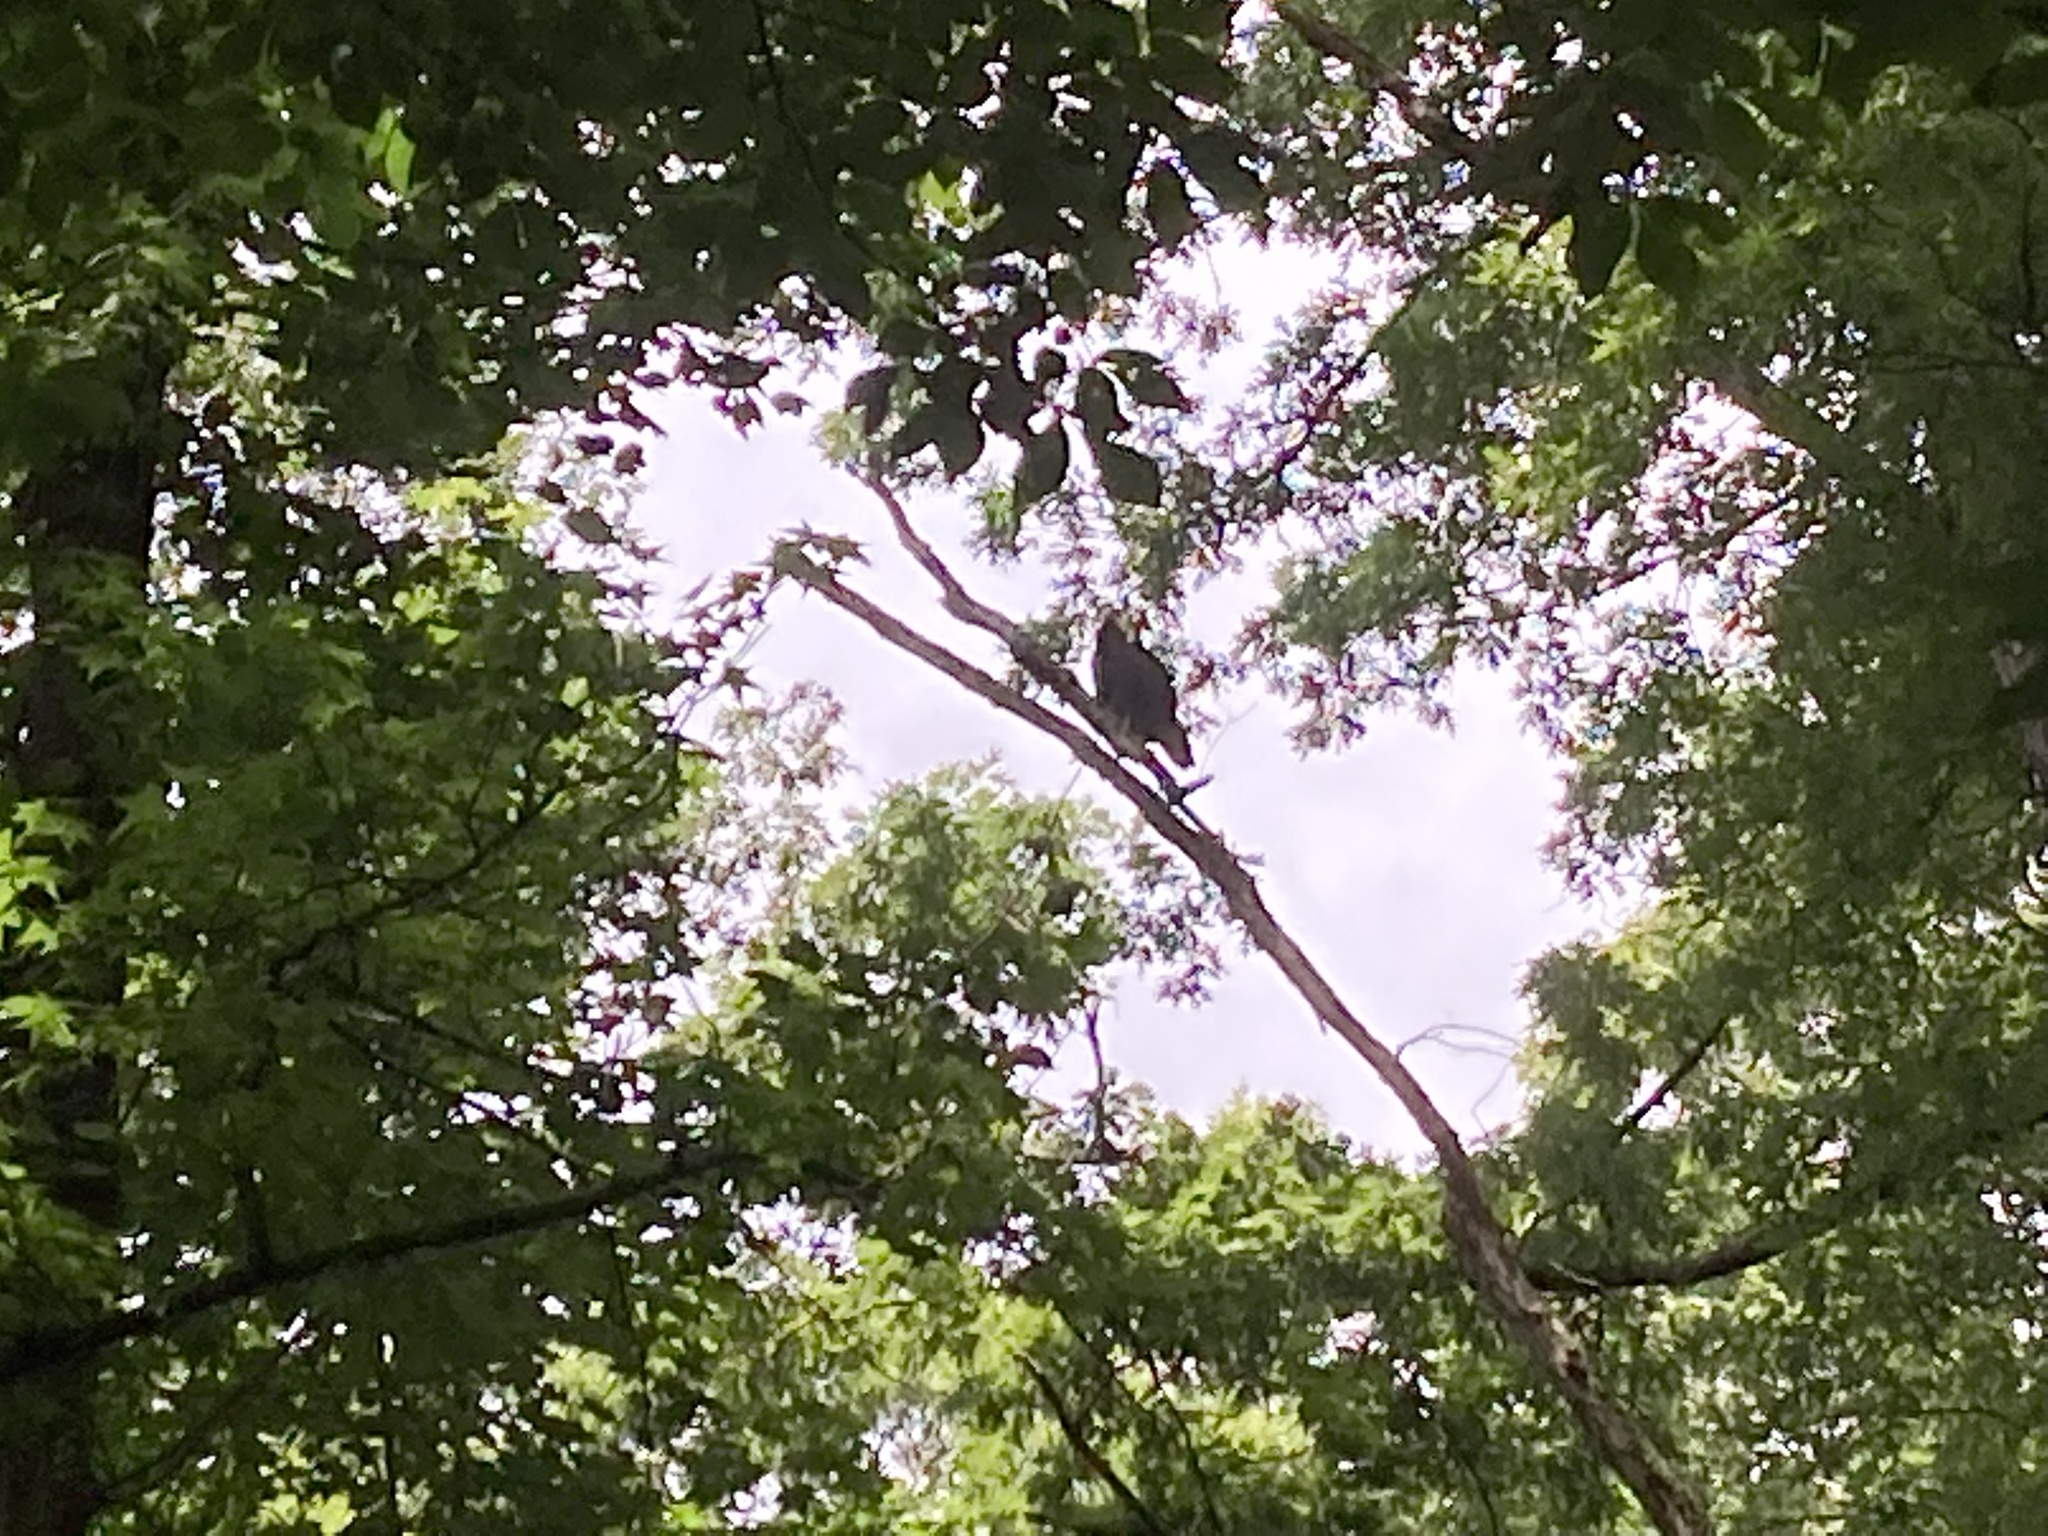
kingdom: Animalia
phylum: Chordata
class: Aves
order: Accipitriformes
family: Cathartidae
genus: Cathartes
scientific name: Cathartes aura
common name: Turkey vulture
